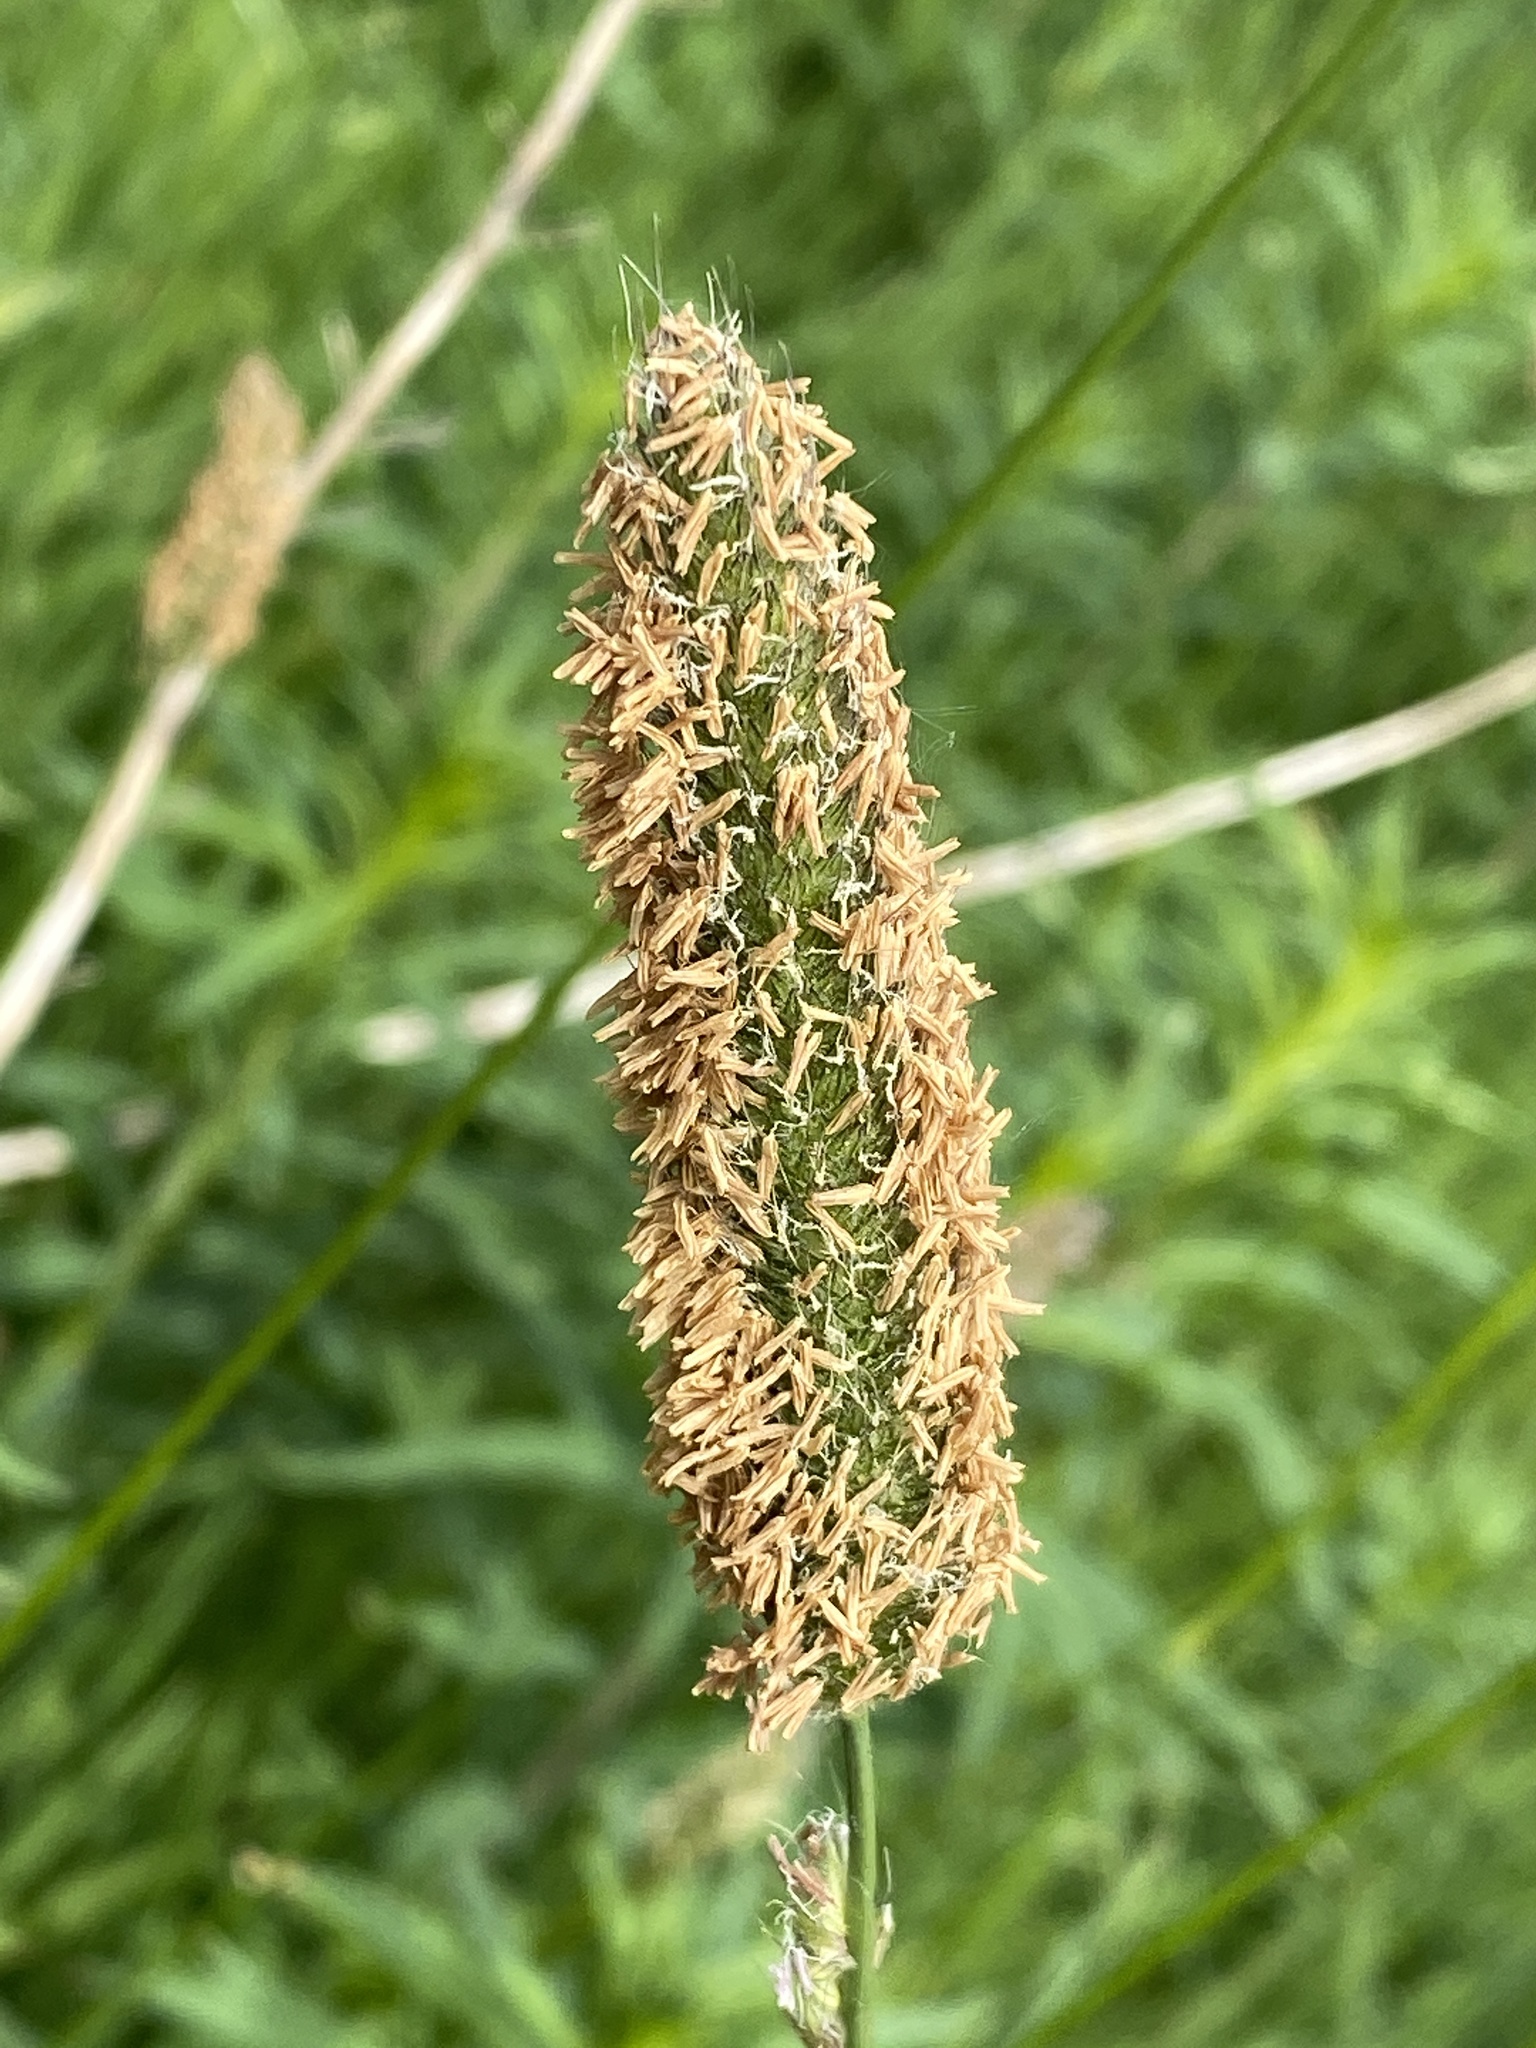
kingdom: Plantae
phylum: Tracheophyta
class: Liliopsida
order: Poales
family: Poaceae
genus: Alopecurus
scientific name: Alopecurus pratensis
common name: Meadow foxtail
